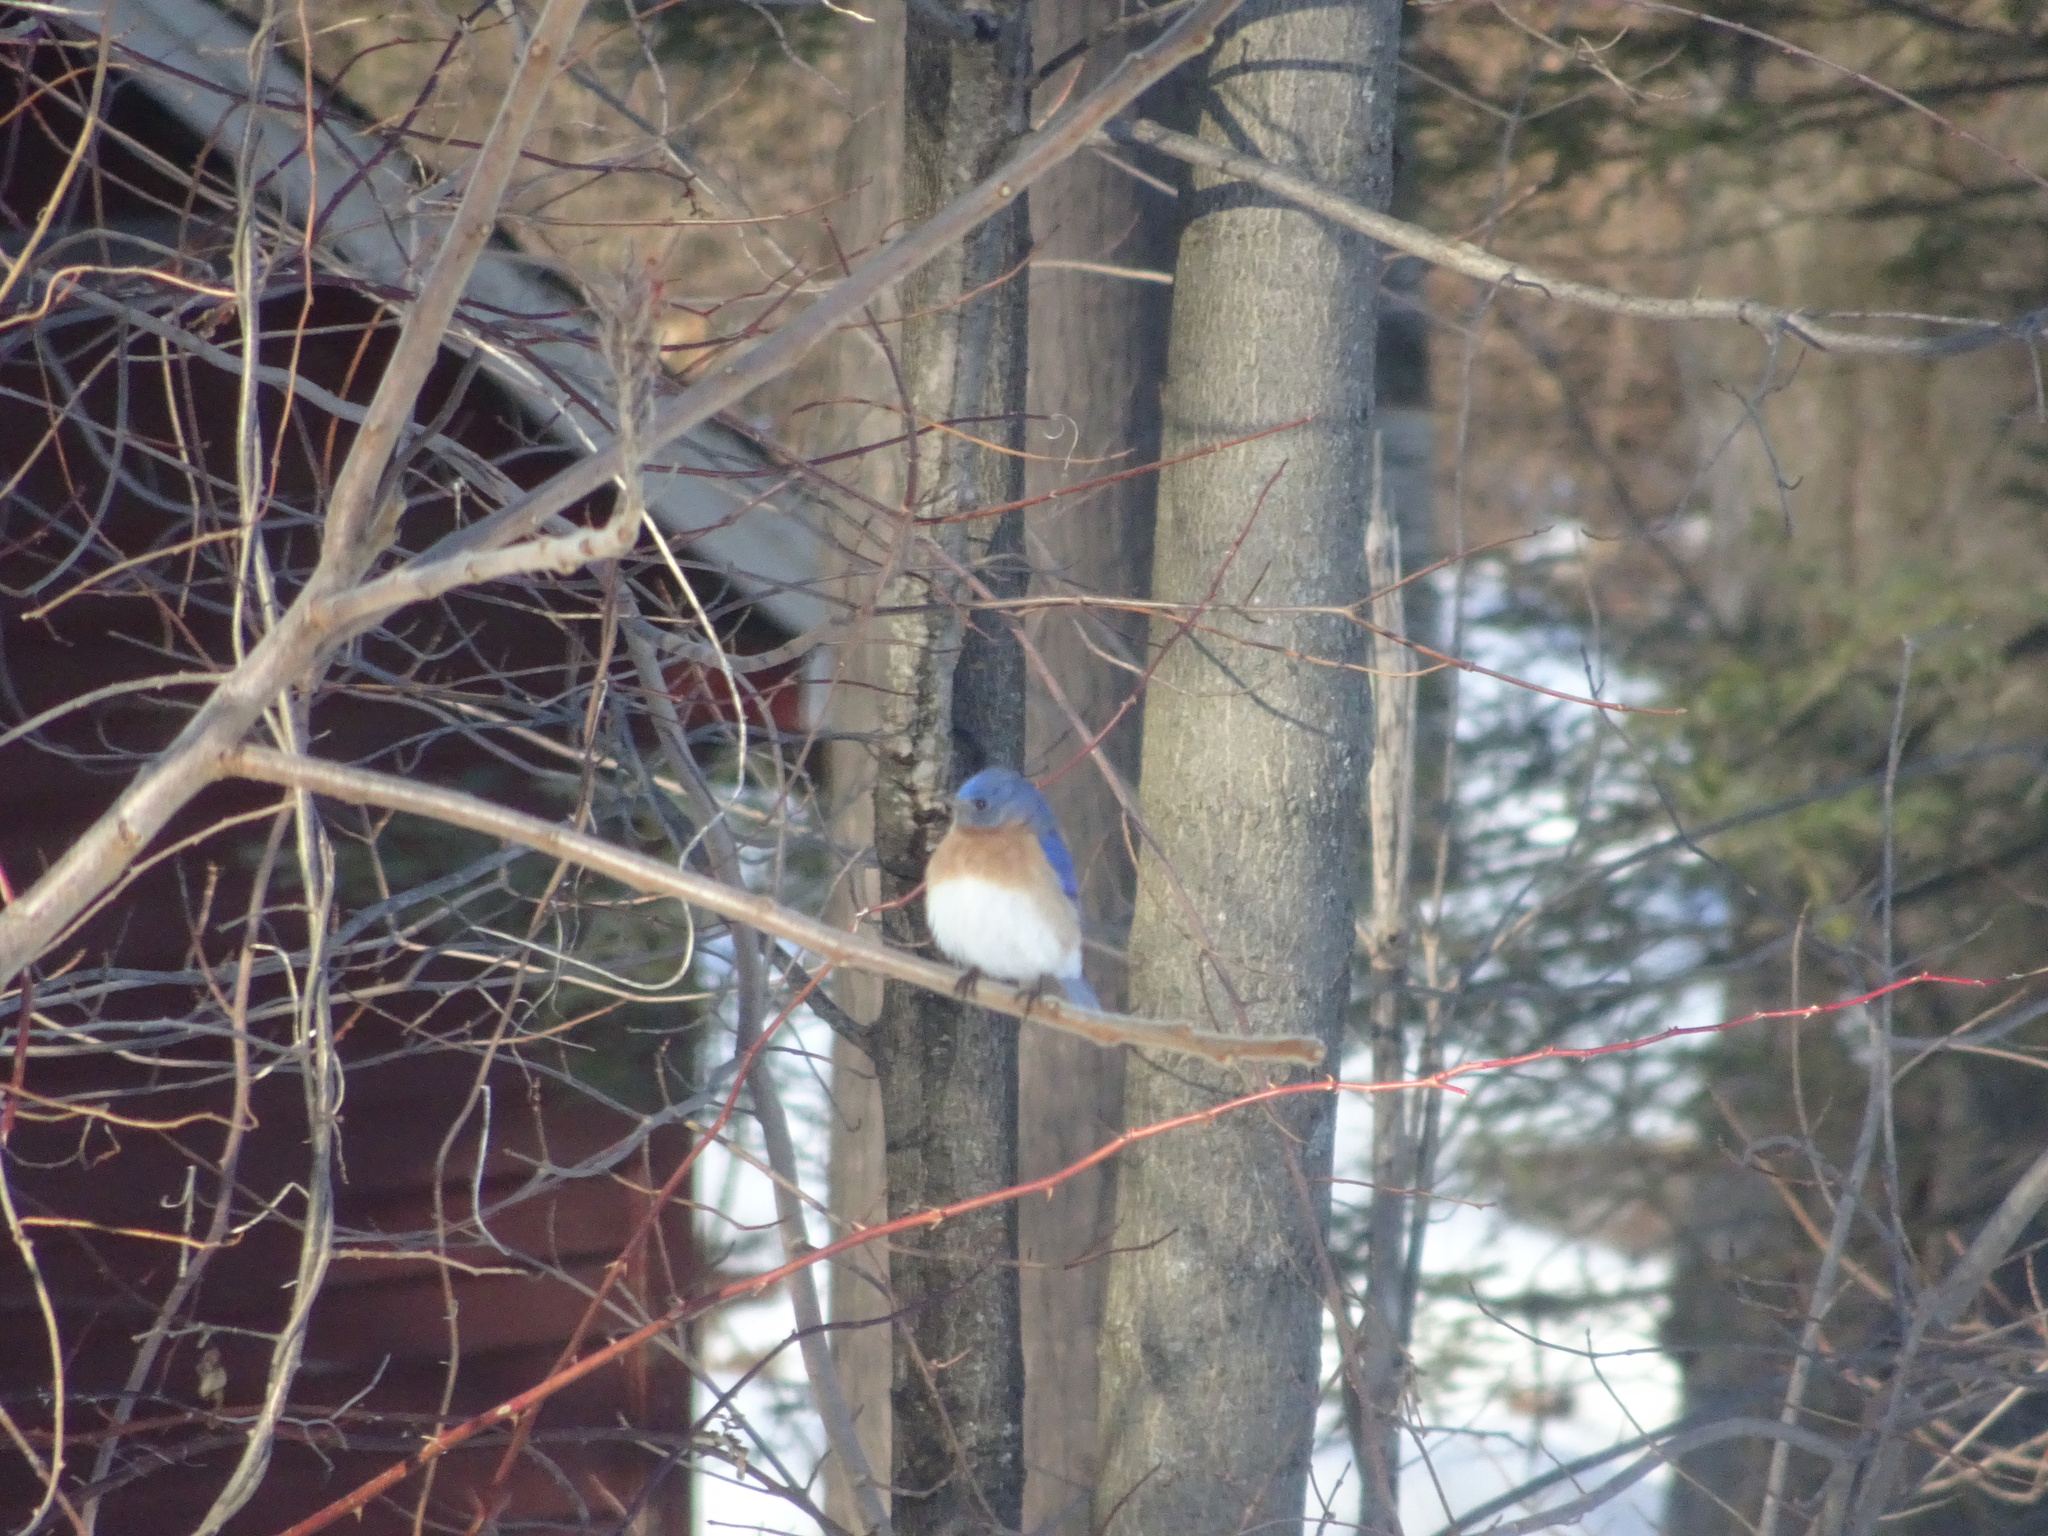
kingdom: Animalia
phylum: Chordata
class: Aves
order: Passeriformes
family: Turdidae
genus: Sialia
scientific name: Sialia sialis
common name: Eastern bluebird
